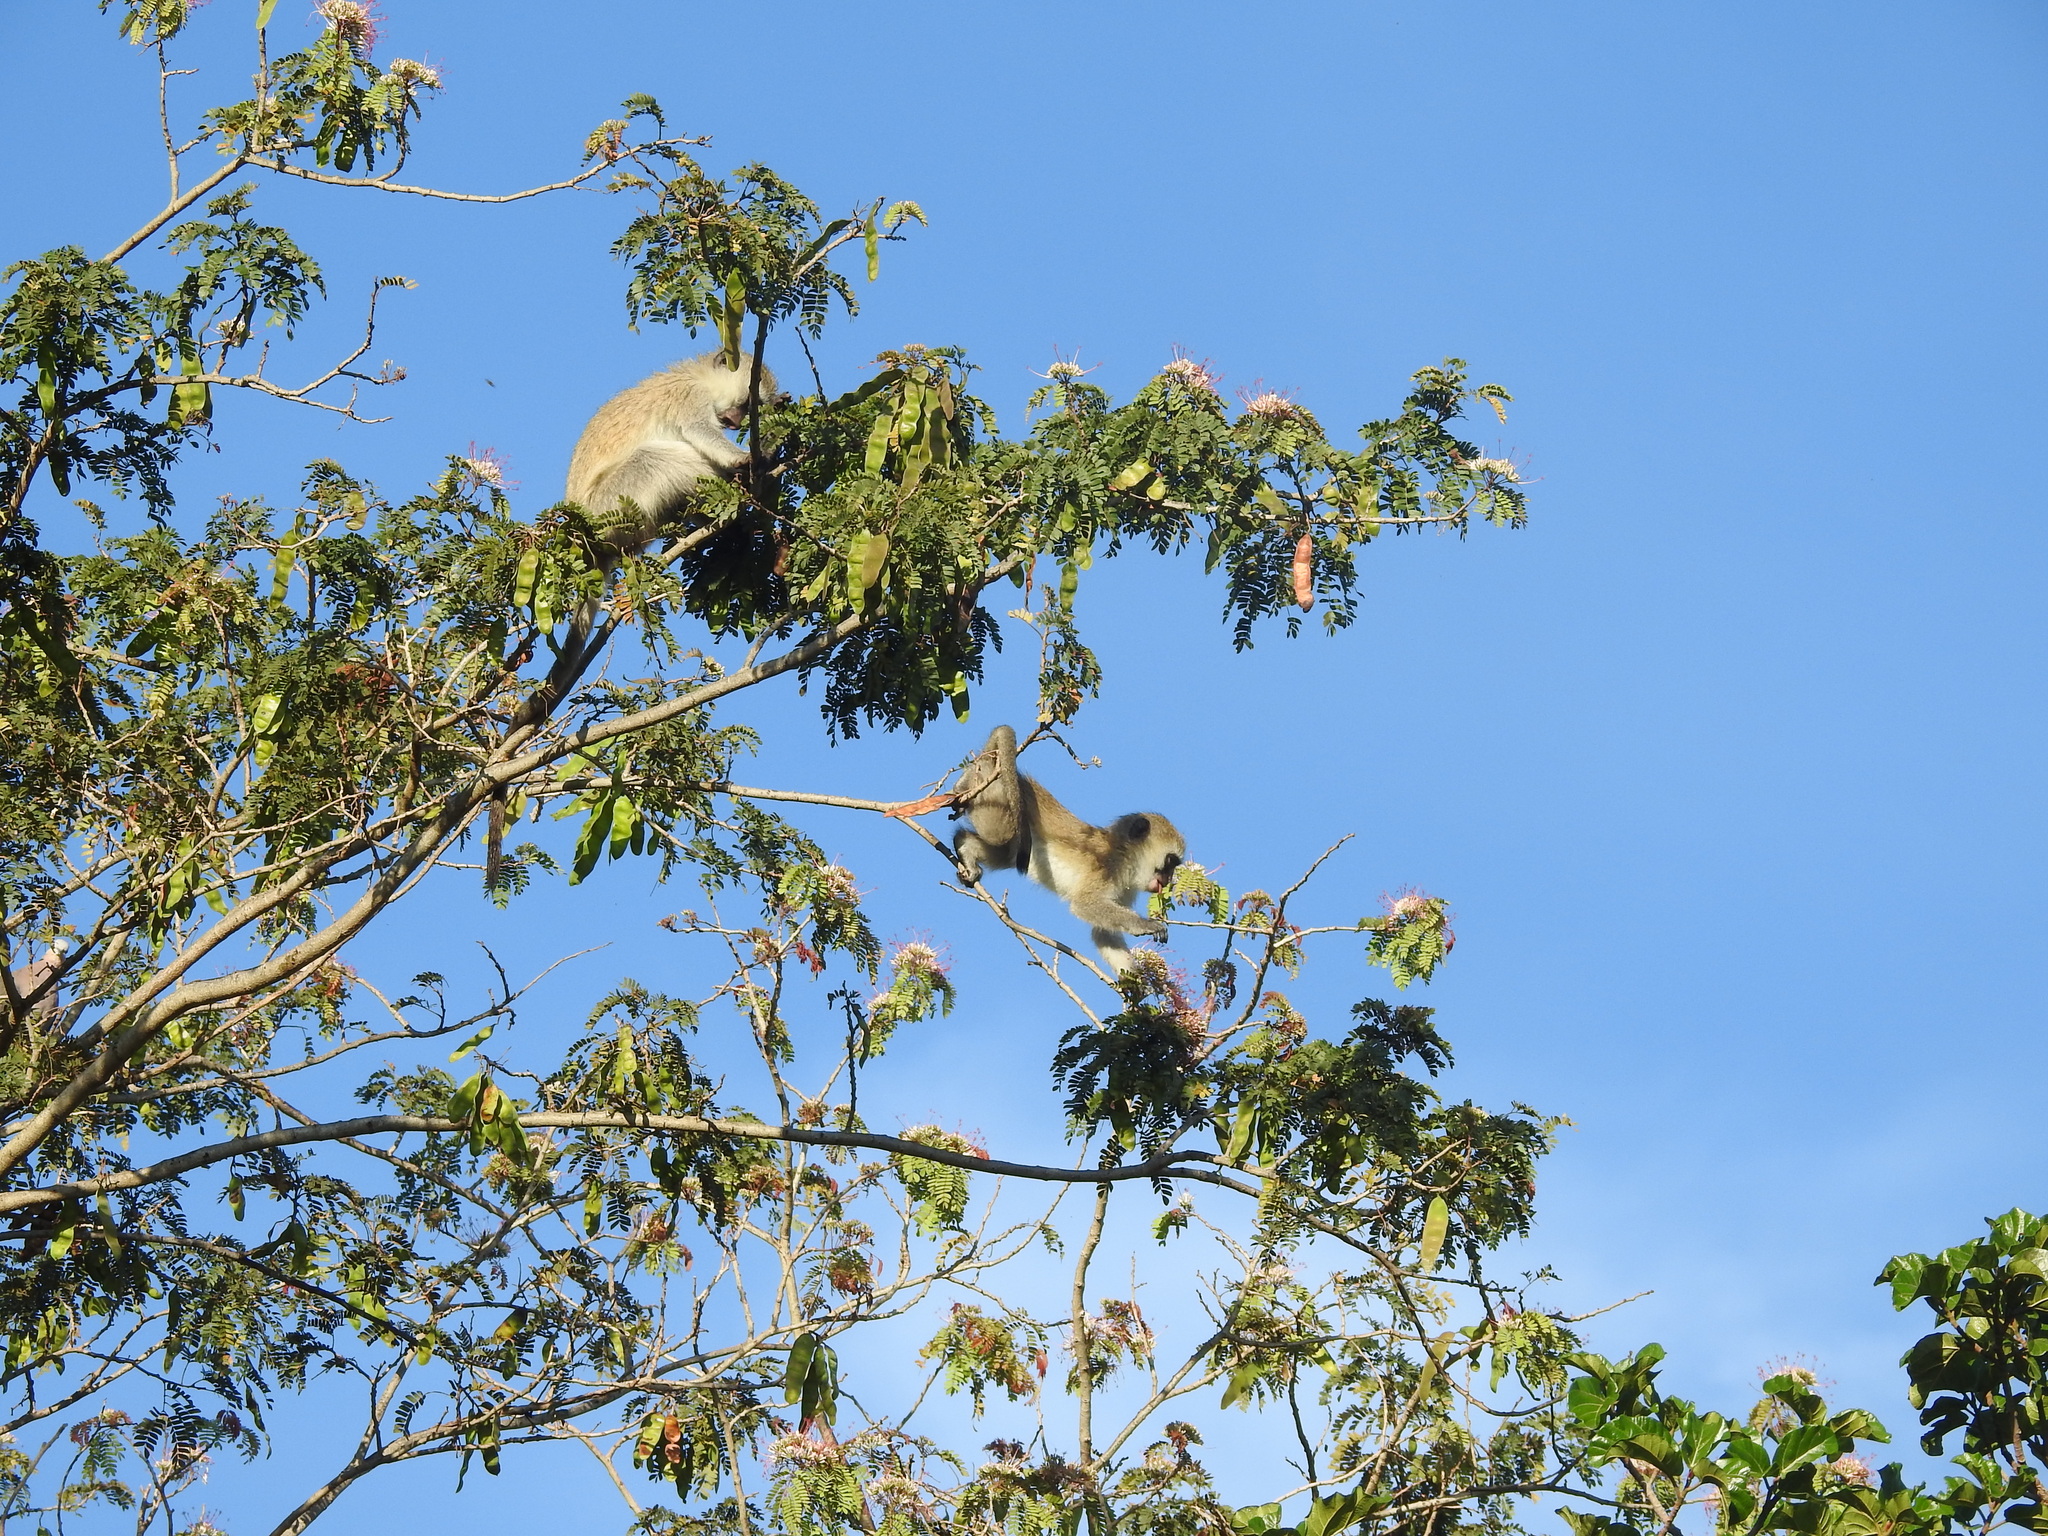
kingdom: Animalia
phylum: Chordata
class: Mammalia
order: Primates
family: Cercopithecidae
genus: Chlorocebus
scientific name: Chlorocebus pygerythrus
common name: Vervet monkey
